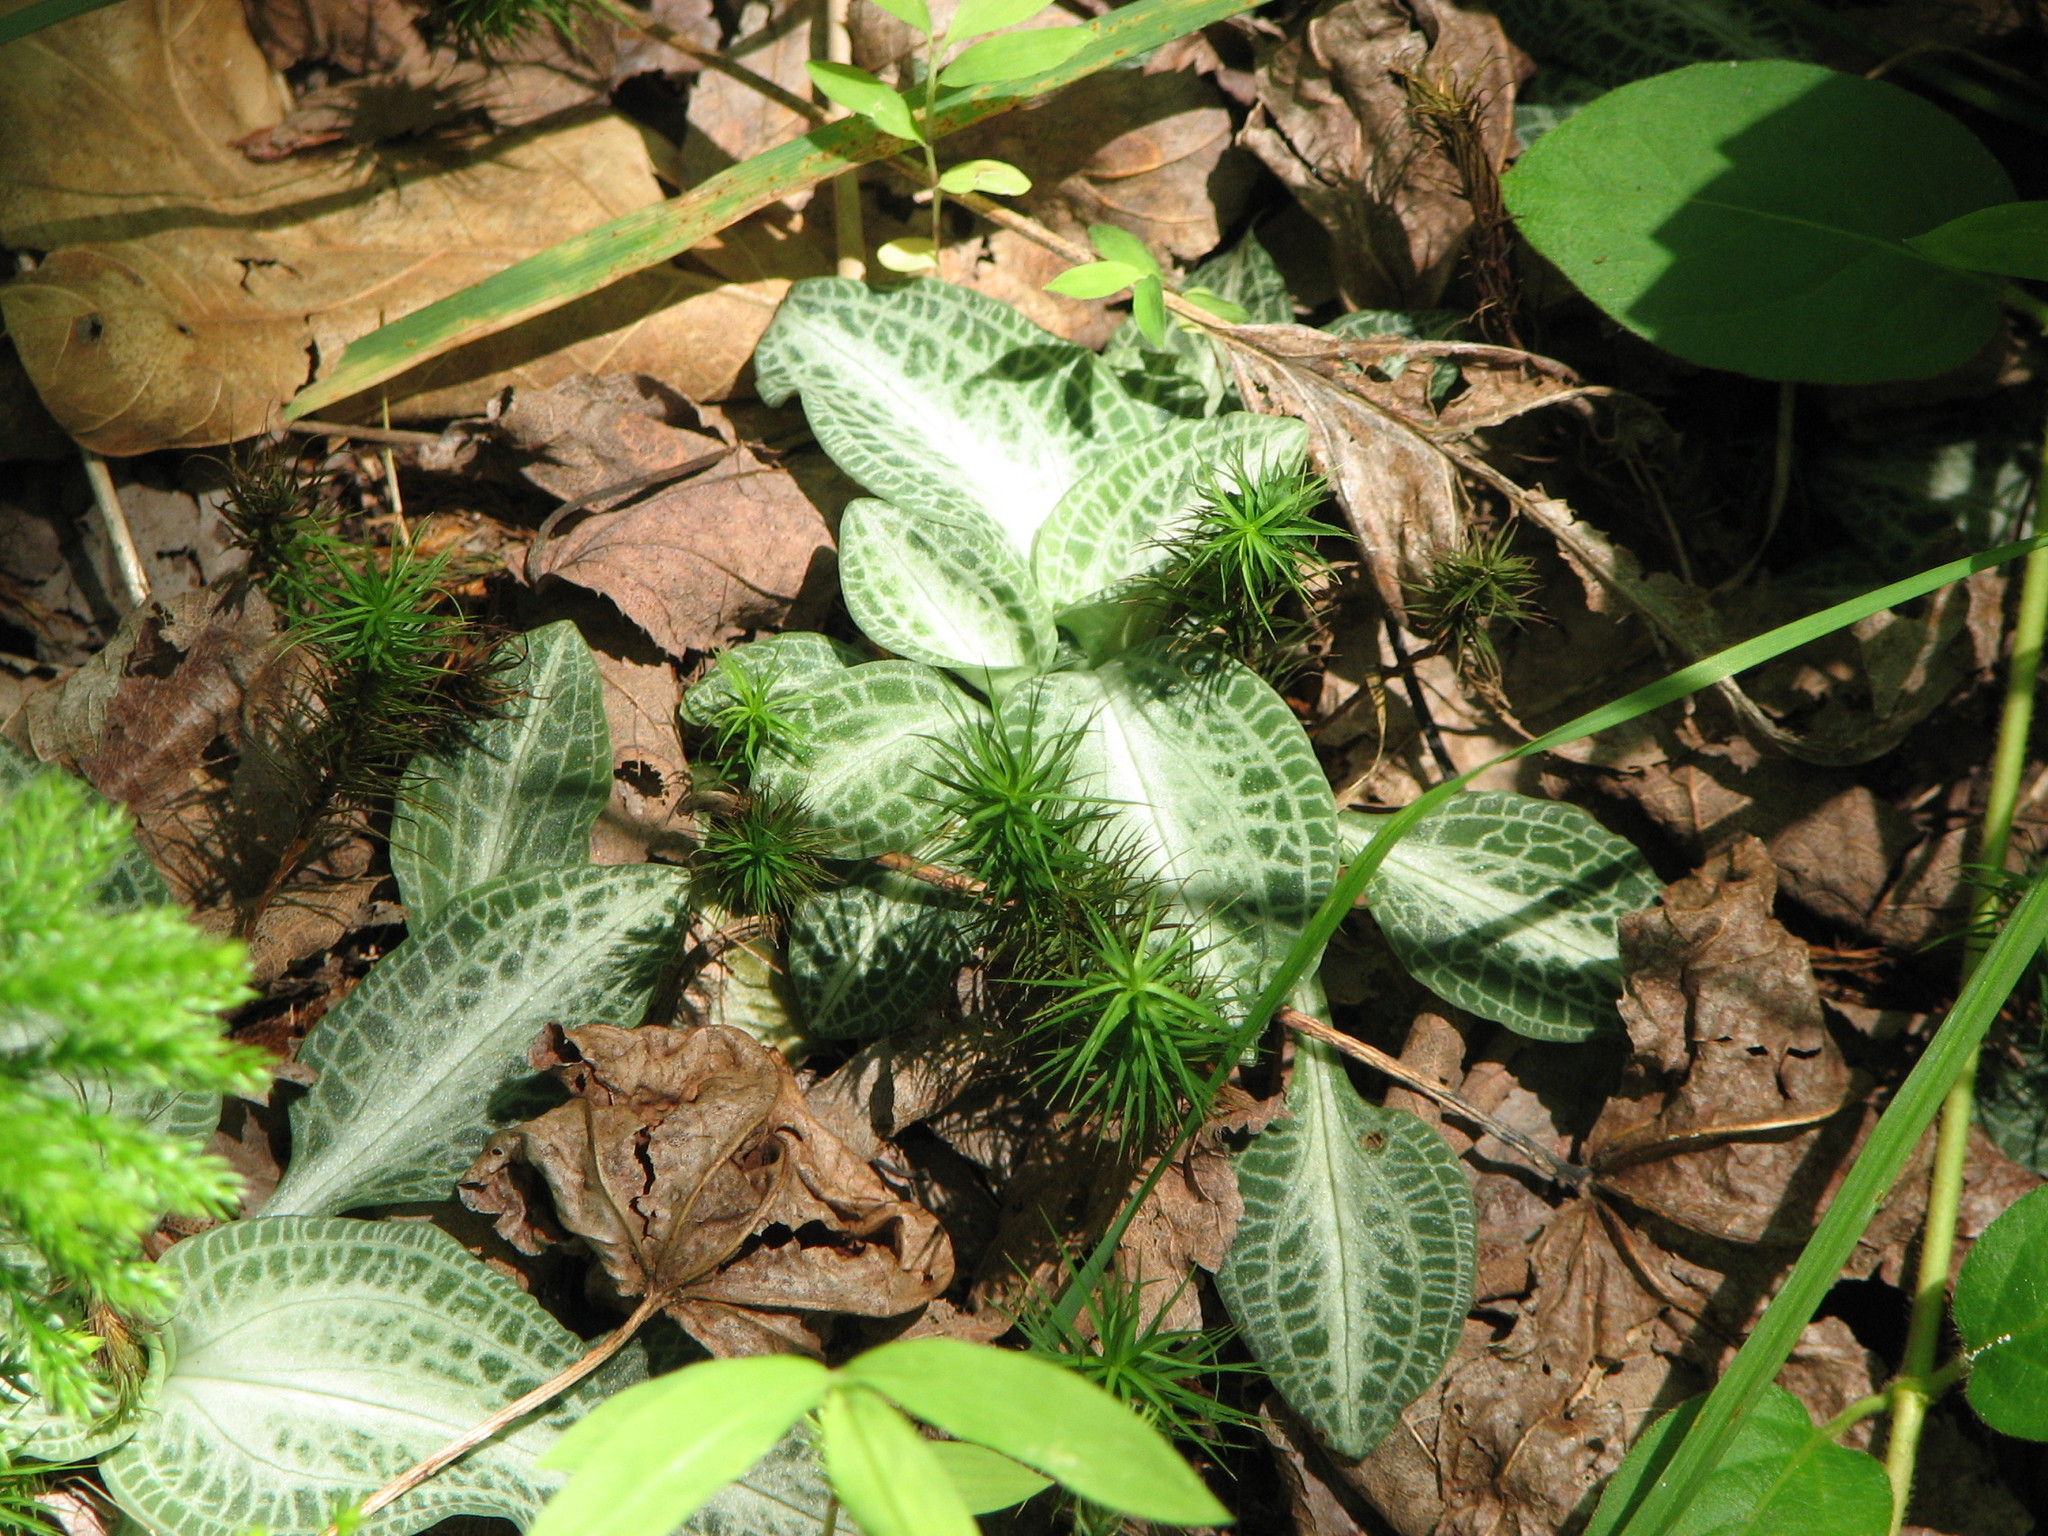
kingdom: Plantae
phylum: Tracheophyta
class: Liliopsida
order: Asparagales
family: Orchidaceae
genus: Goodyera
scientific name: Goodyera pubescens
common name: Downy rattlesnake-plantain
